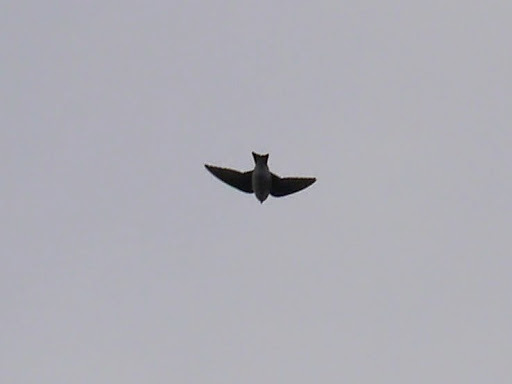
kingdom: Animalia
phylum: Chordata
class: Aves
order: Passeriformes
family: Hirundinidae
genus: Tachycineta
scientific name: Tachycineta bicolor
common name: Tree swallow
